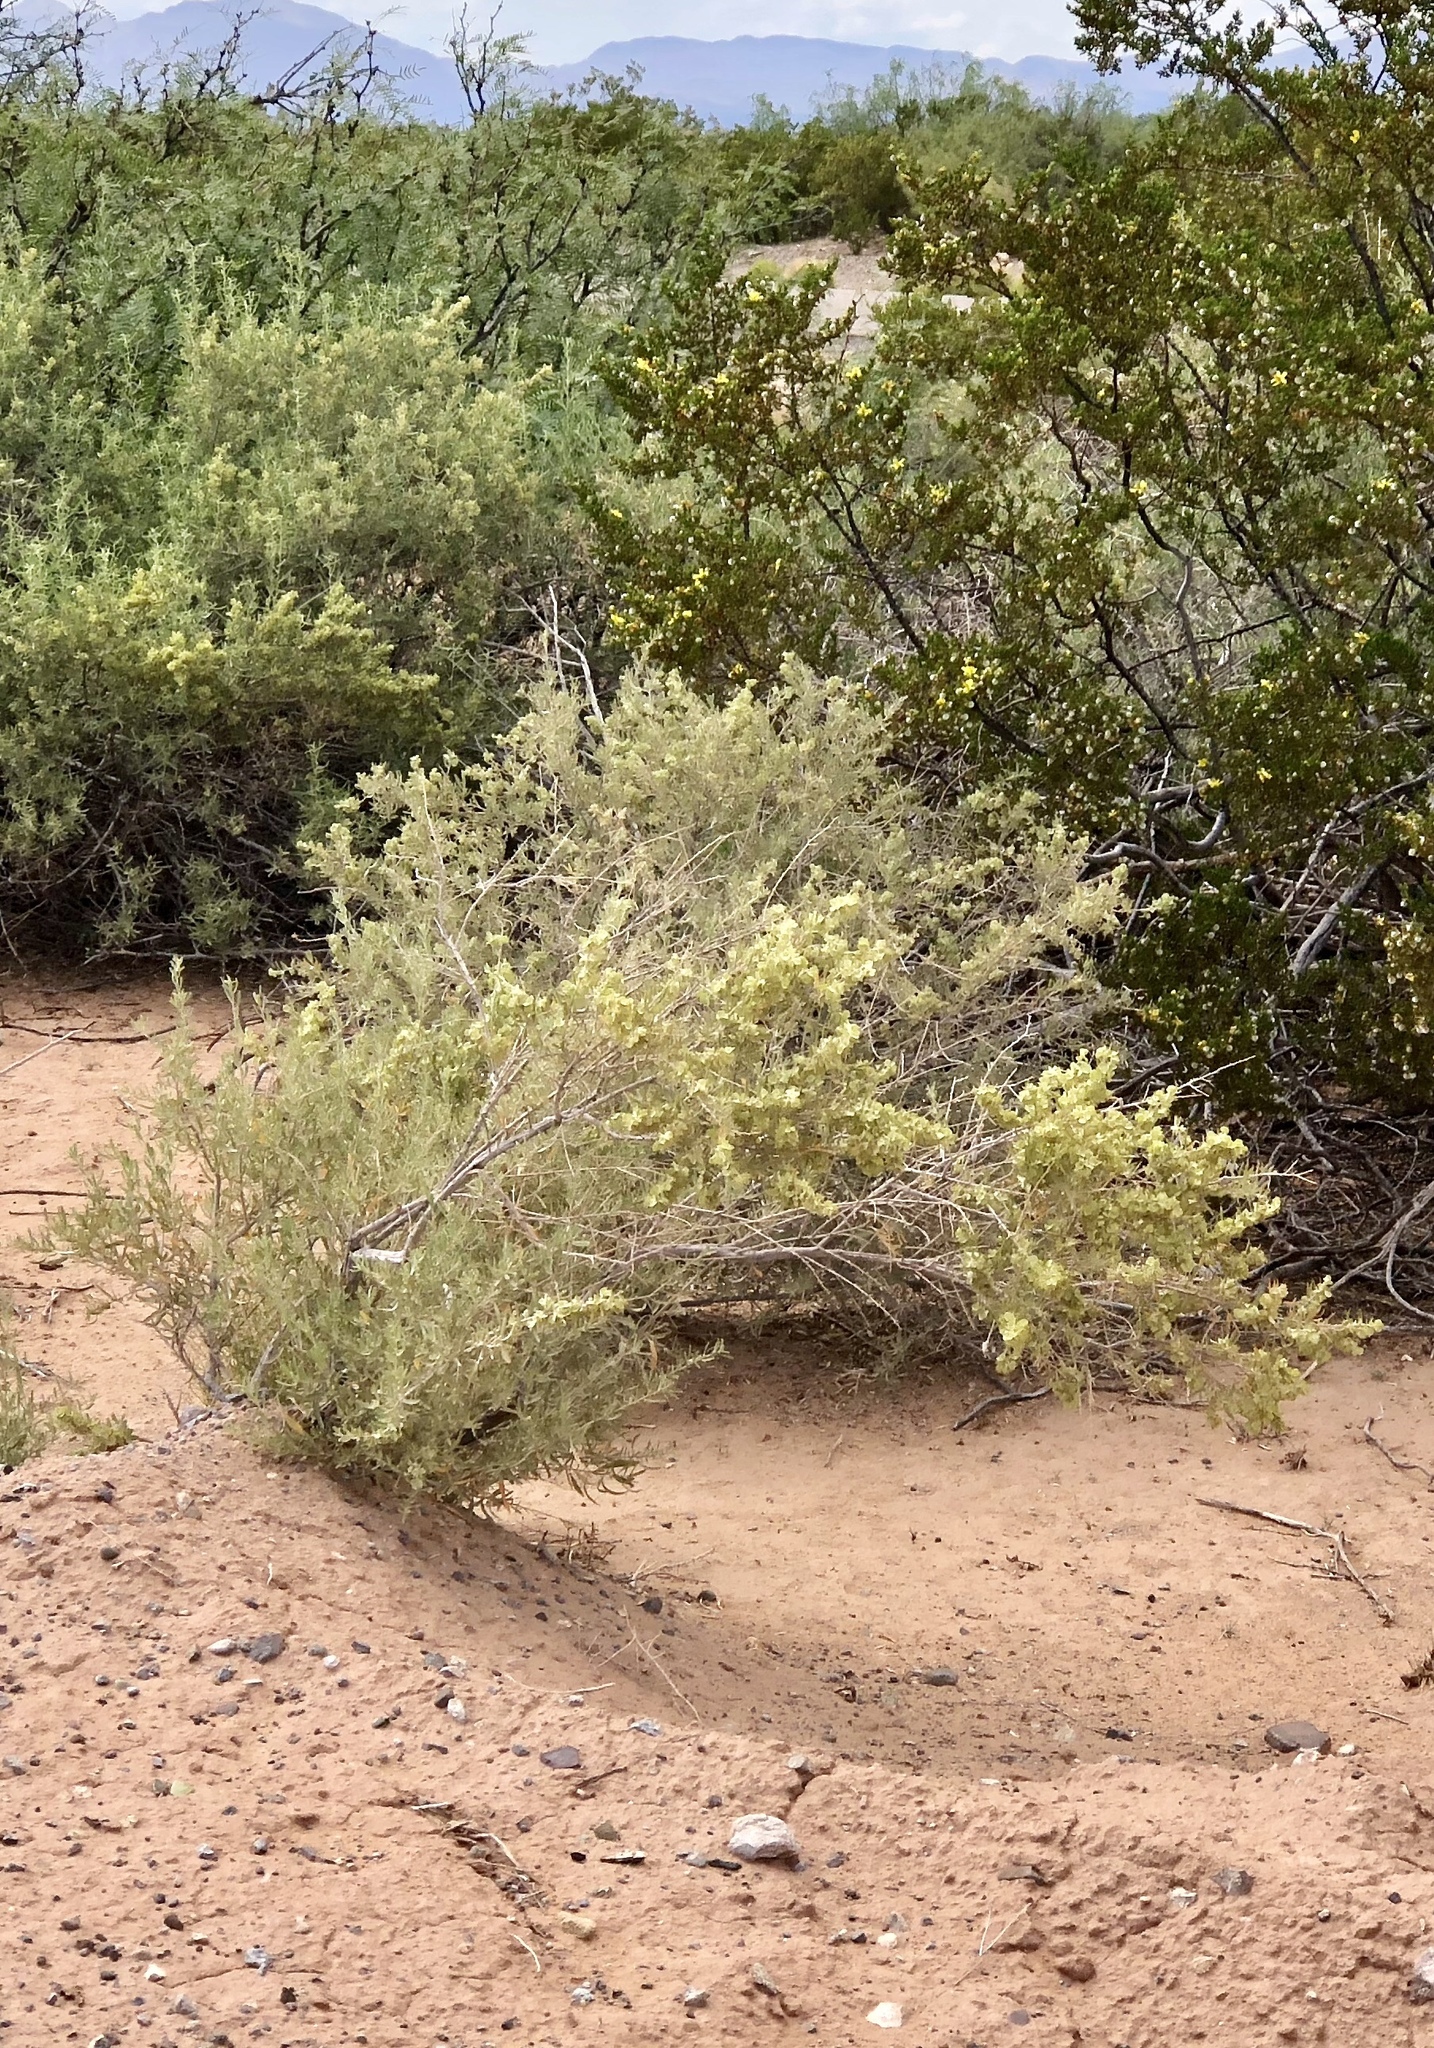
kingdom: Plantae
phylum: Tracheophyta
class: Magnoliopsida
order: Caryophyllales
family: Amaranthaceae
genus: Atriplex
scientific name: Atriplex canescens
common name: Four-wing saltbush
